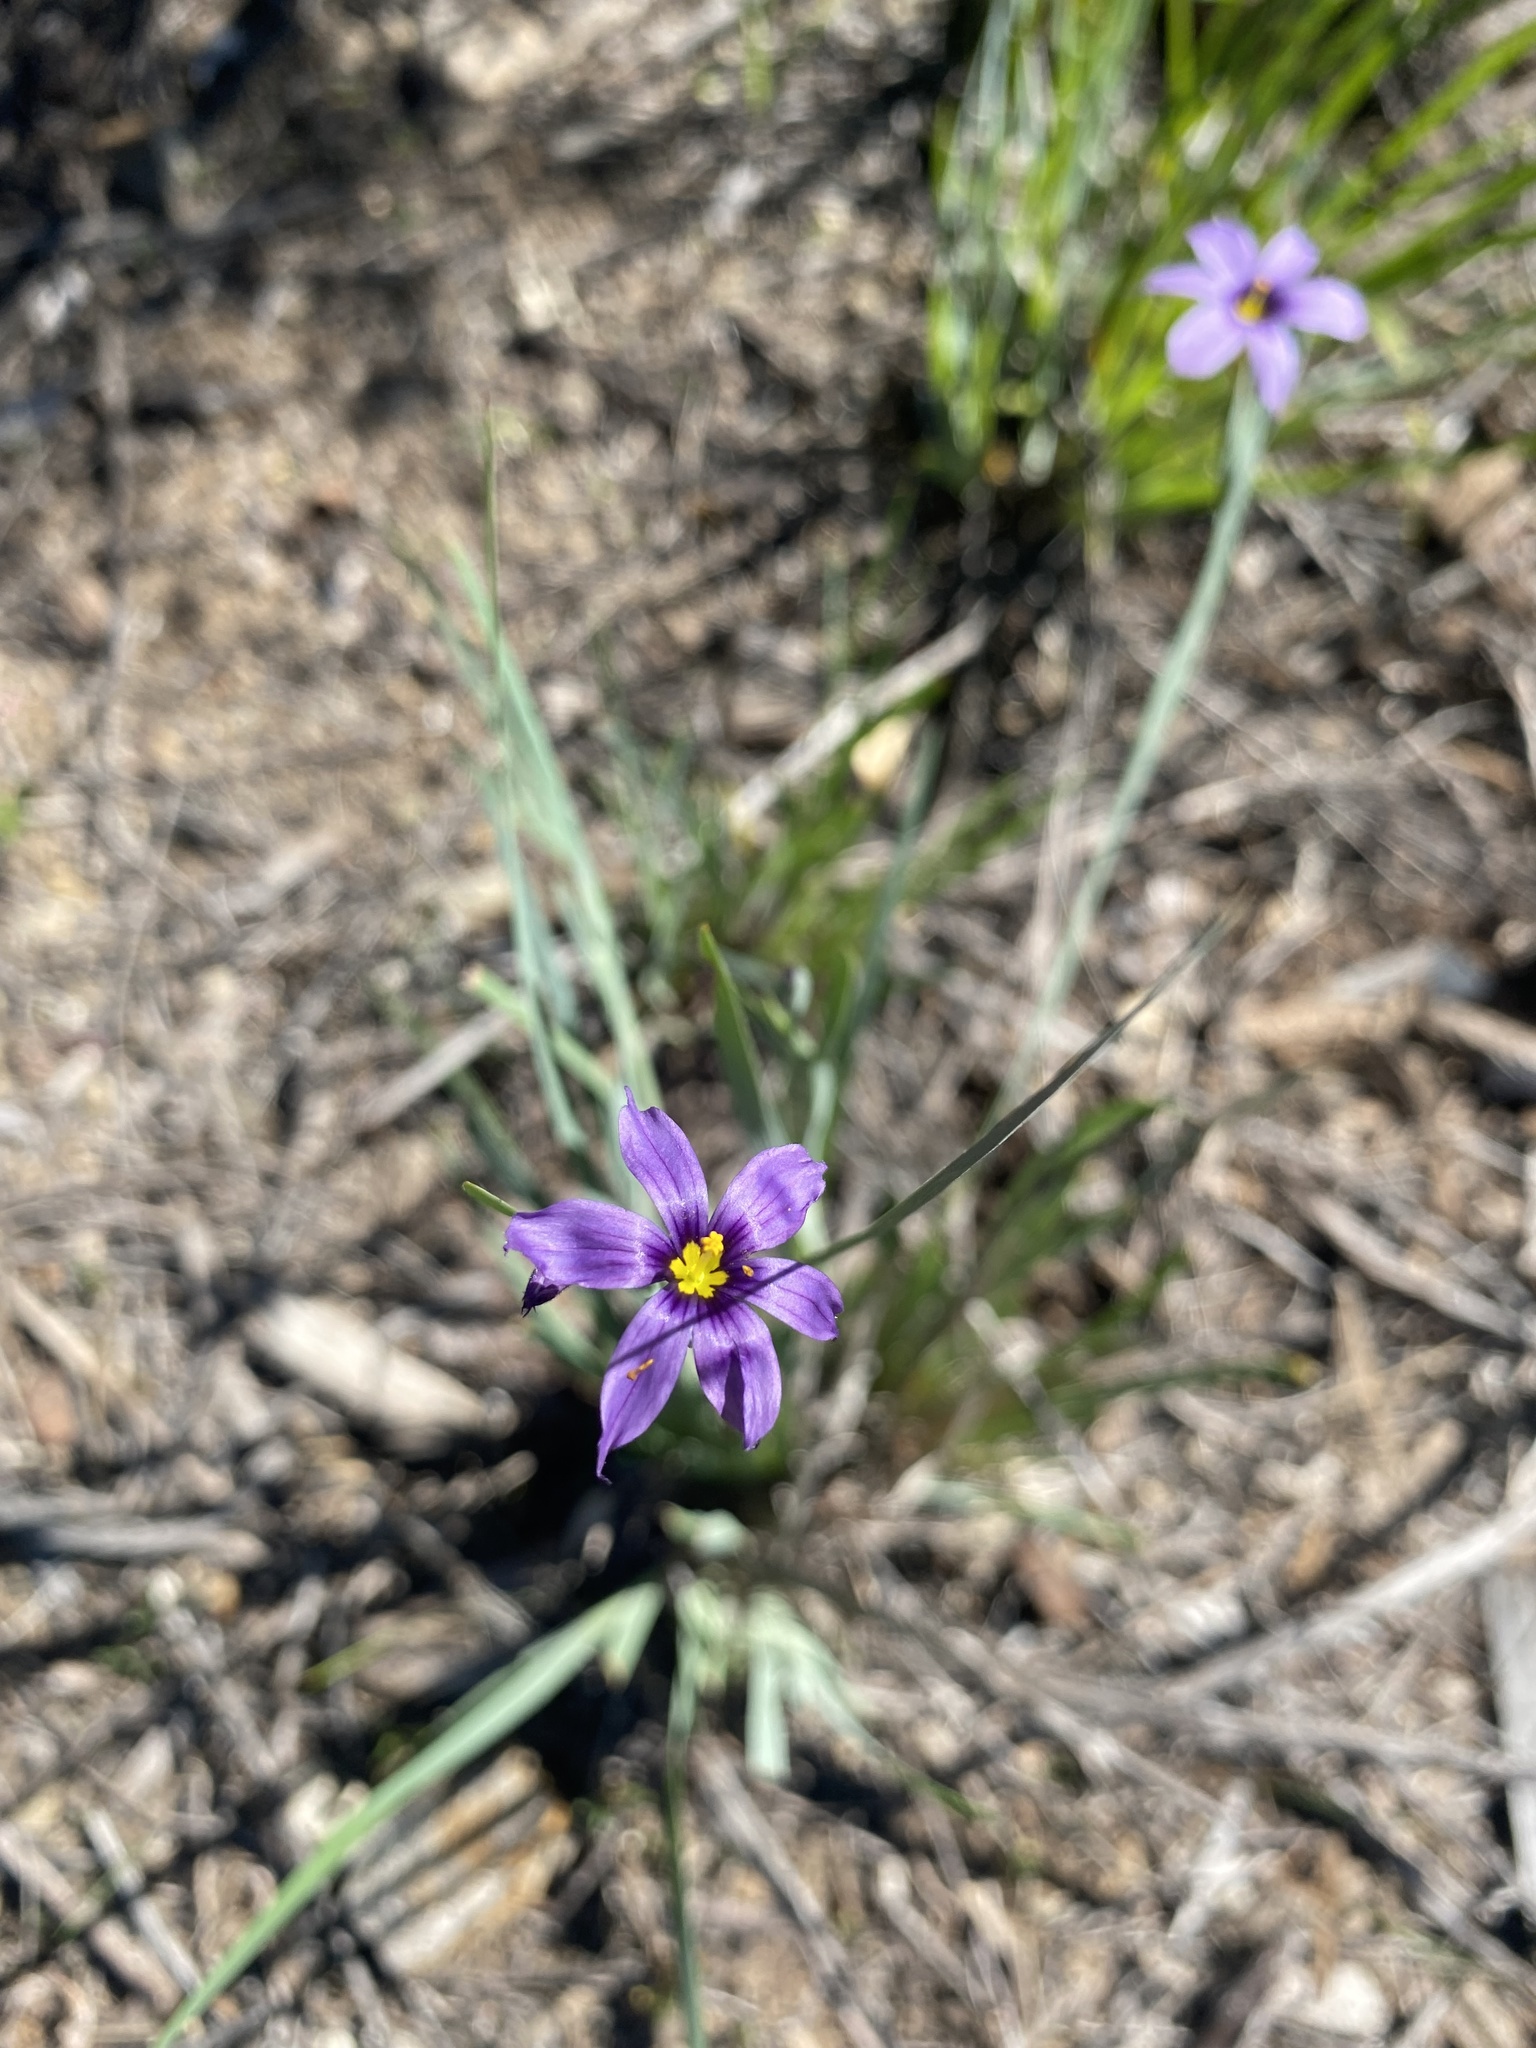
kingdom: Plantae
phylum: Tracheophyta
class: Liliopsida
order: Asparagales
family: Iridaceae
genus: Sisyrinchium
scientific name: Sisyrinchium bellum
